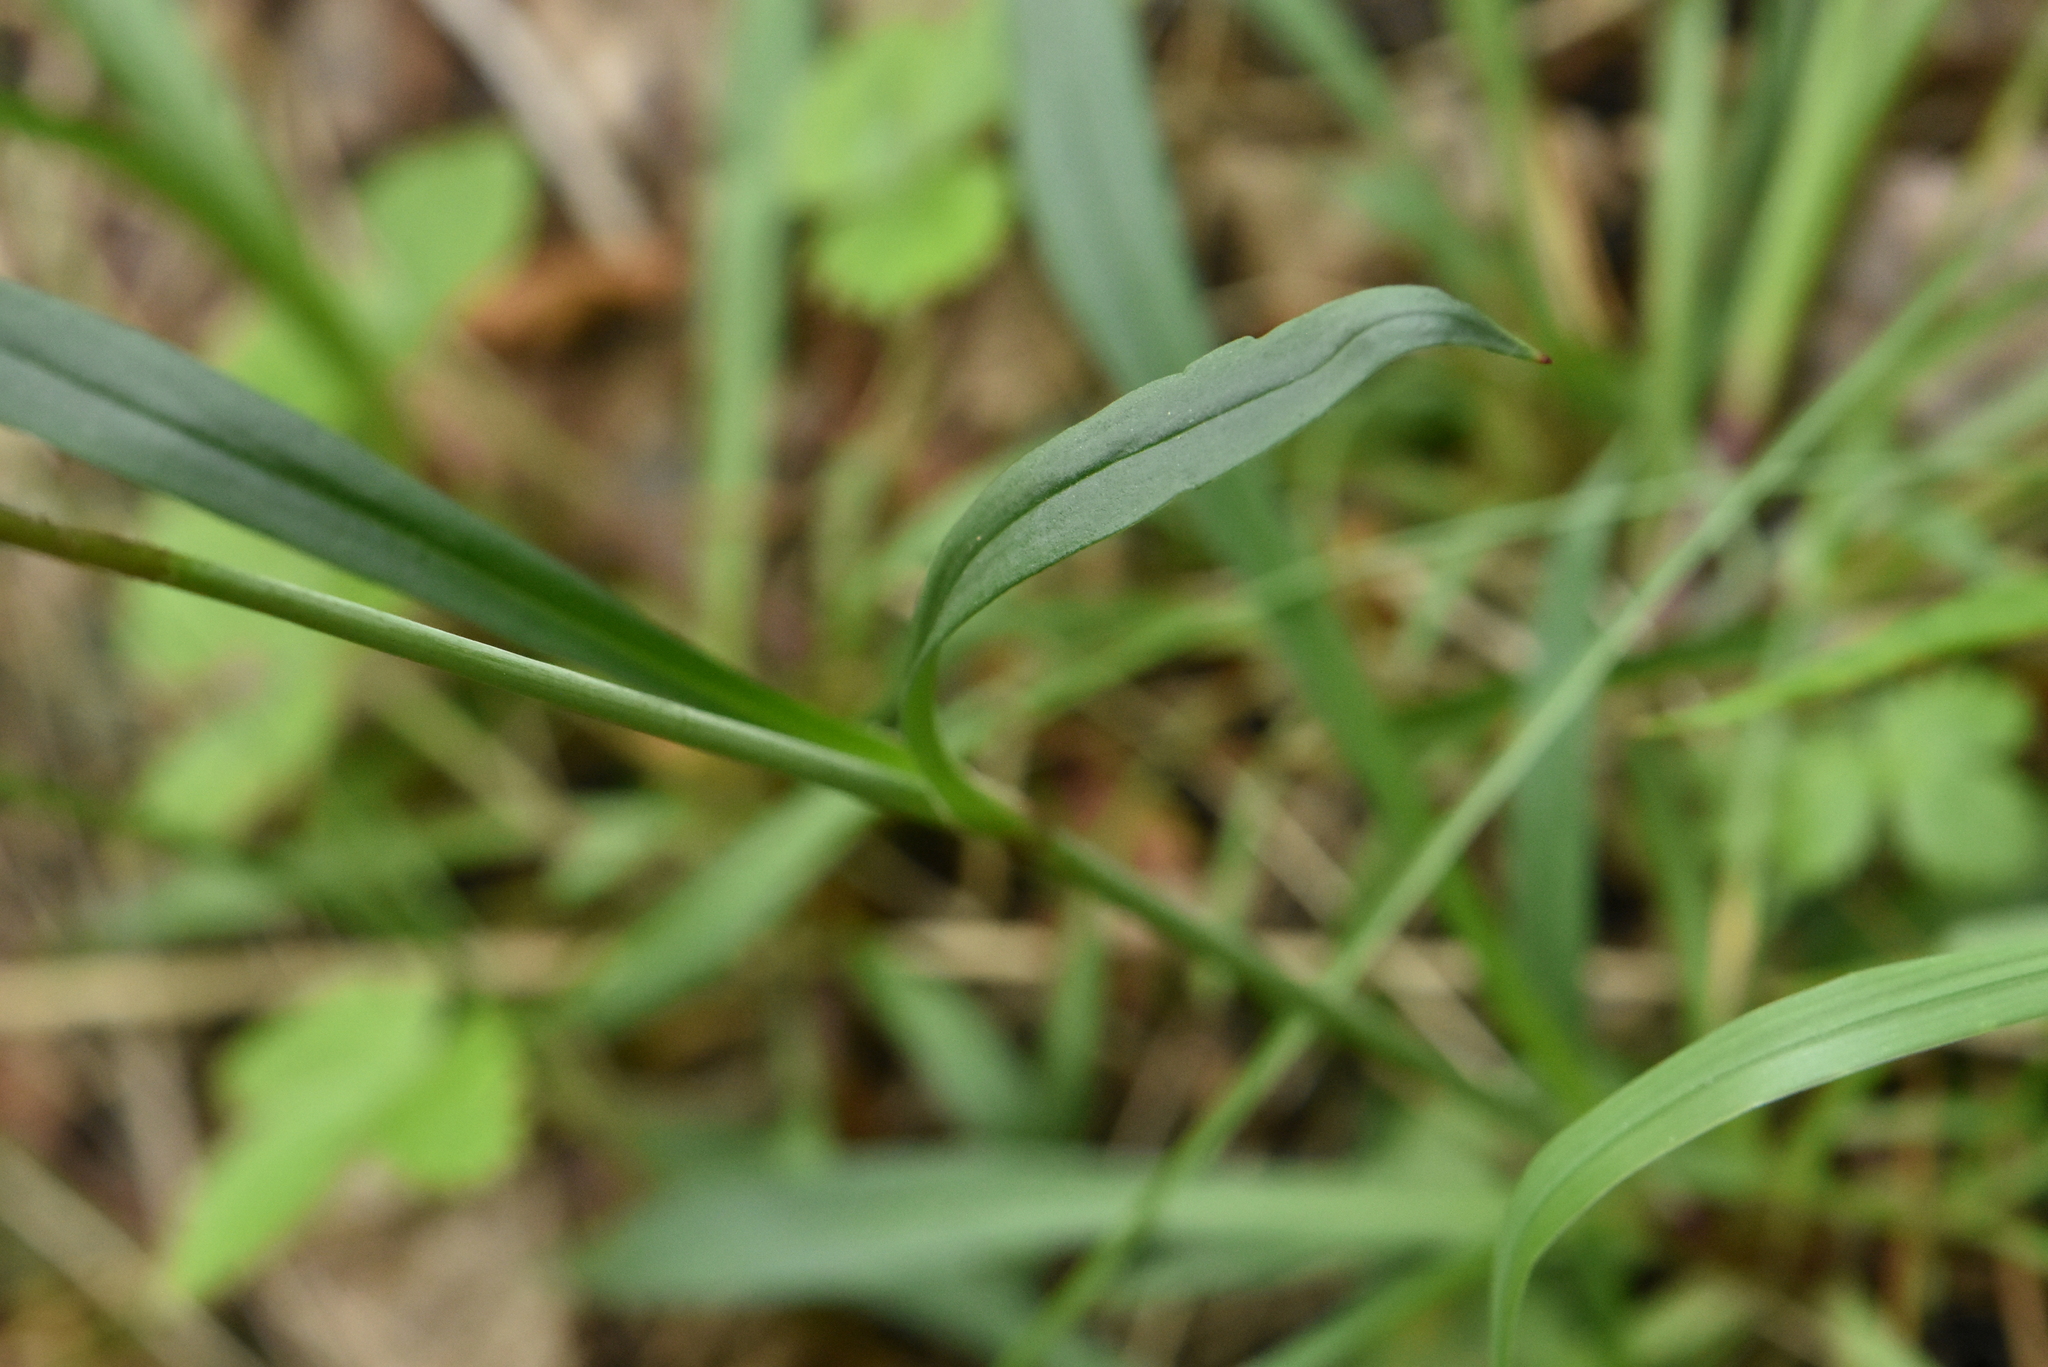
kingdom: Plantae
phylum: Tracheophyta
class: Magnoliopsida
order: Caryophyllales
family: Caryophyllaceae
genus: Viscaria
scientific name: Viscaria vulgaris
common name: Clammy campion
